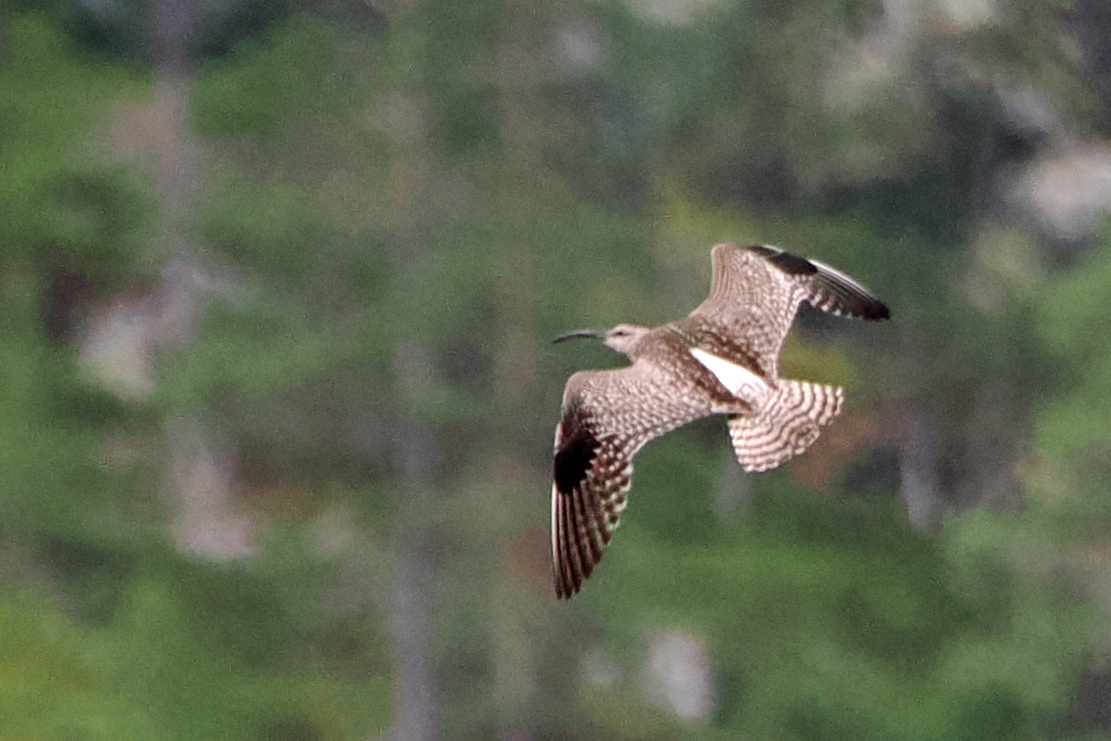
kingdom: Animalia
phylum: Chordata
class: Aves
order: Charadriiformes
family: Scolopacidae
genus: Numenius
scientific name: Numenius phaeopus
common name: Whimbrel
